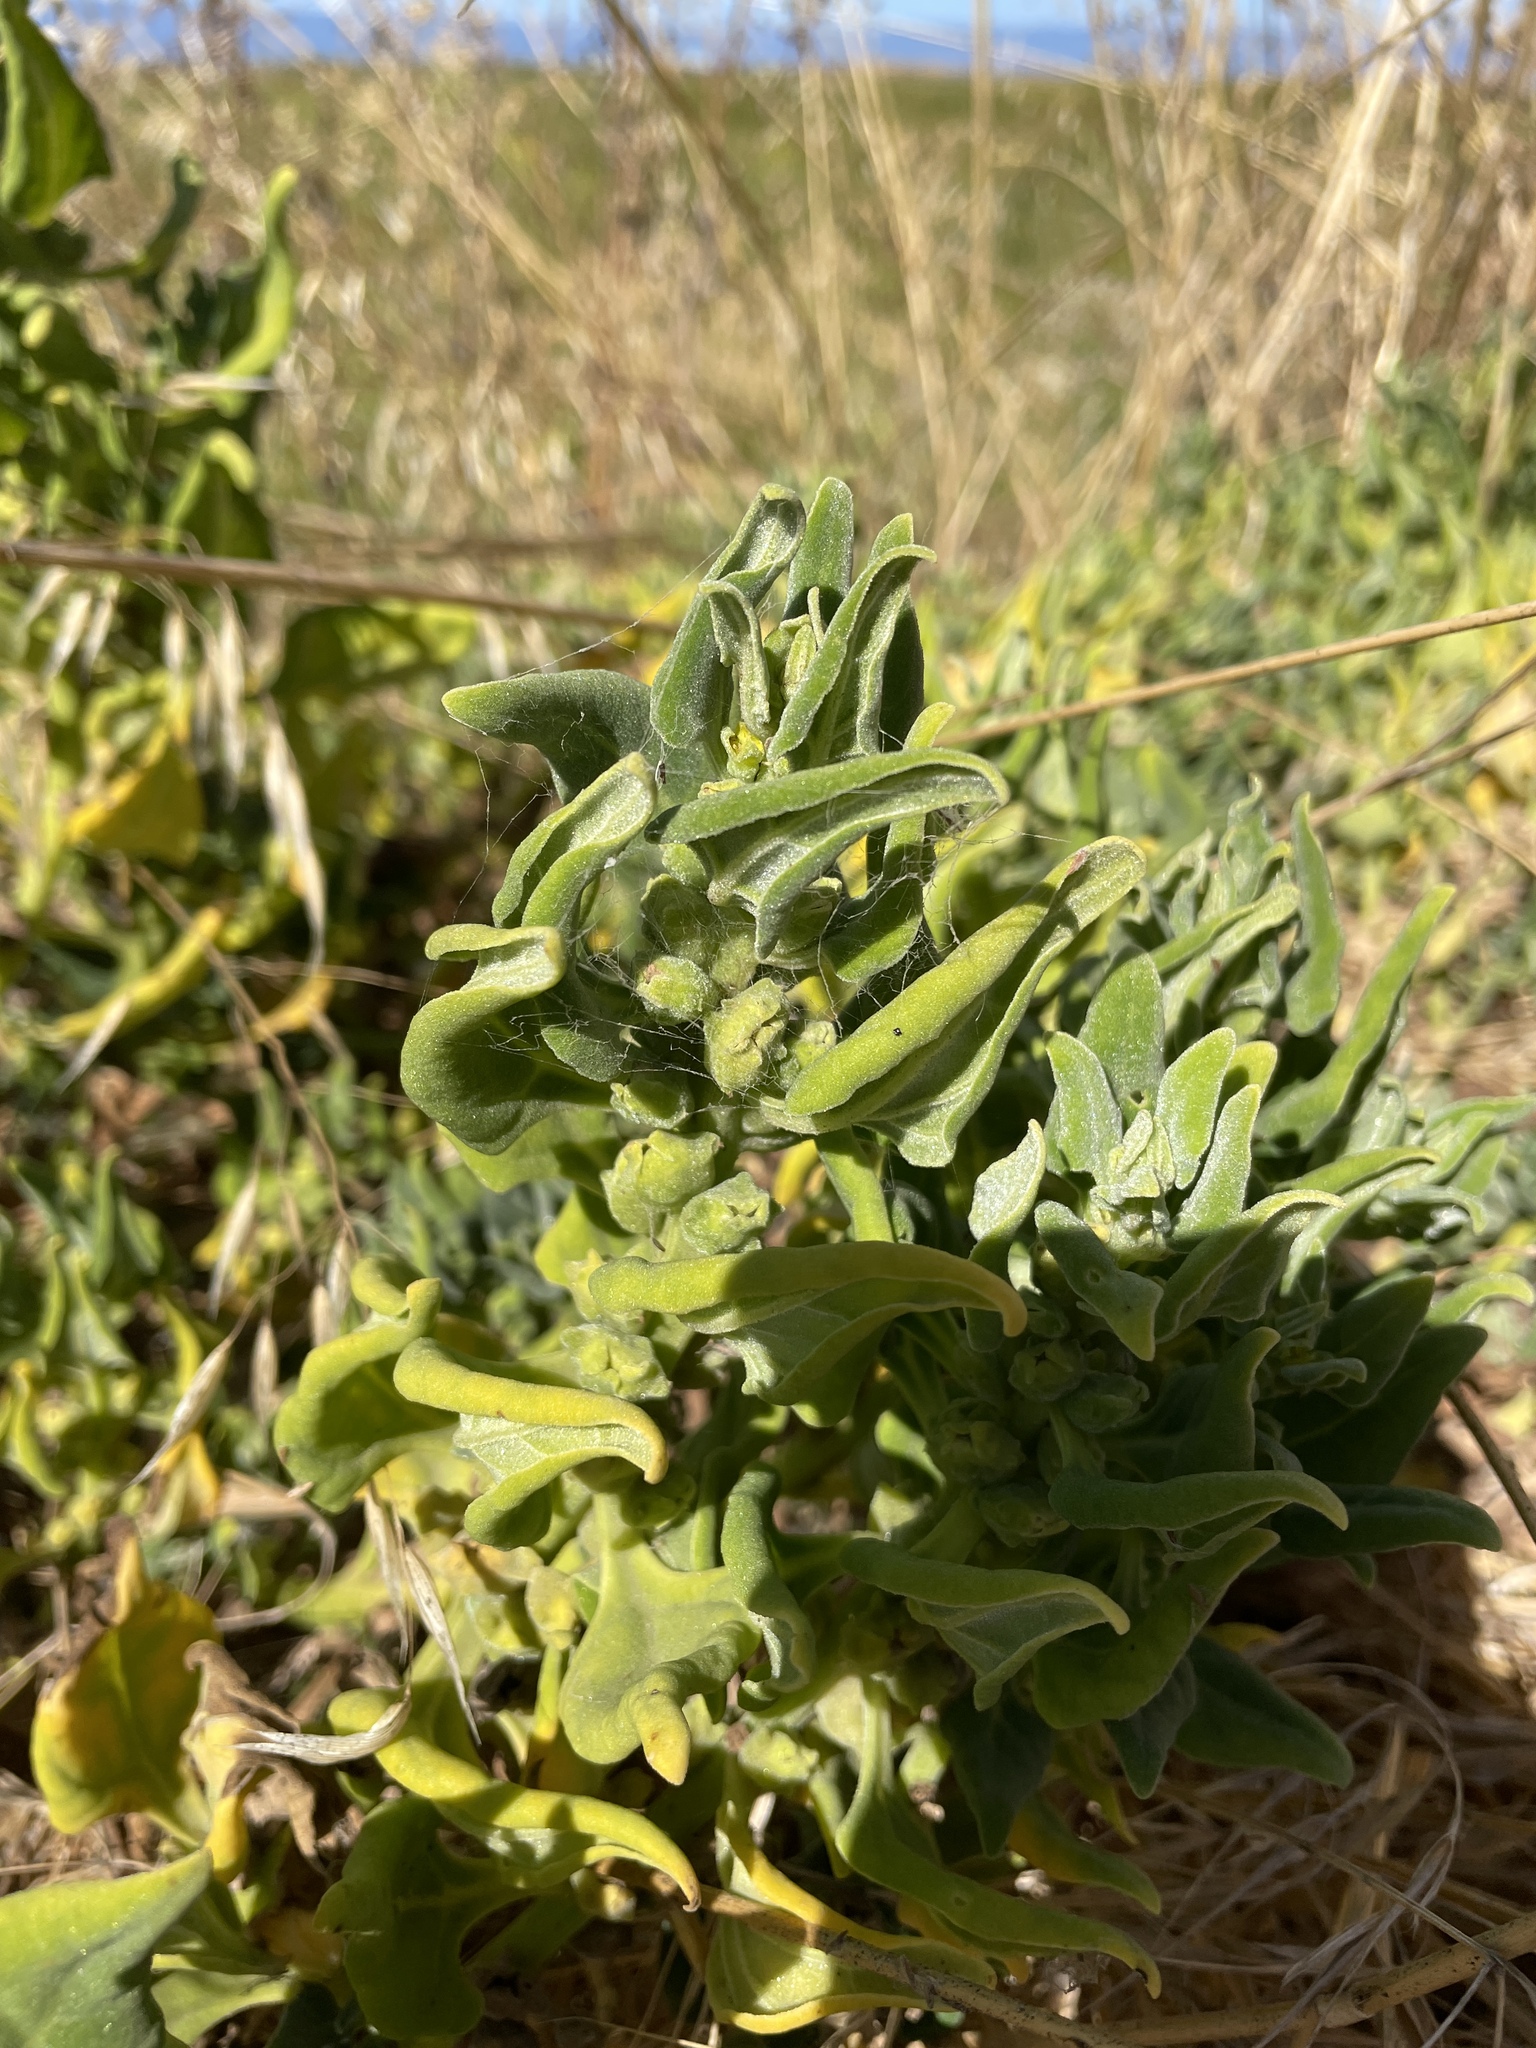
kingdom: Plantae
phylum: Tracheophyta
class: Magnoliopsida
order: Caryophyllales
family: Aizoaceae
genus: Tetragonia
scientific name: Tetragonia tetragonoides
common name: New zealand-spinach
